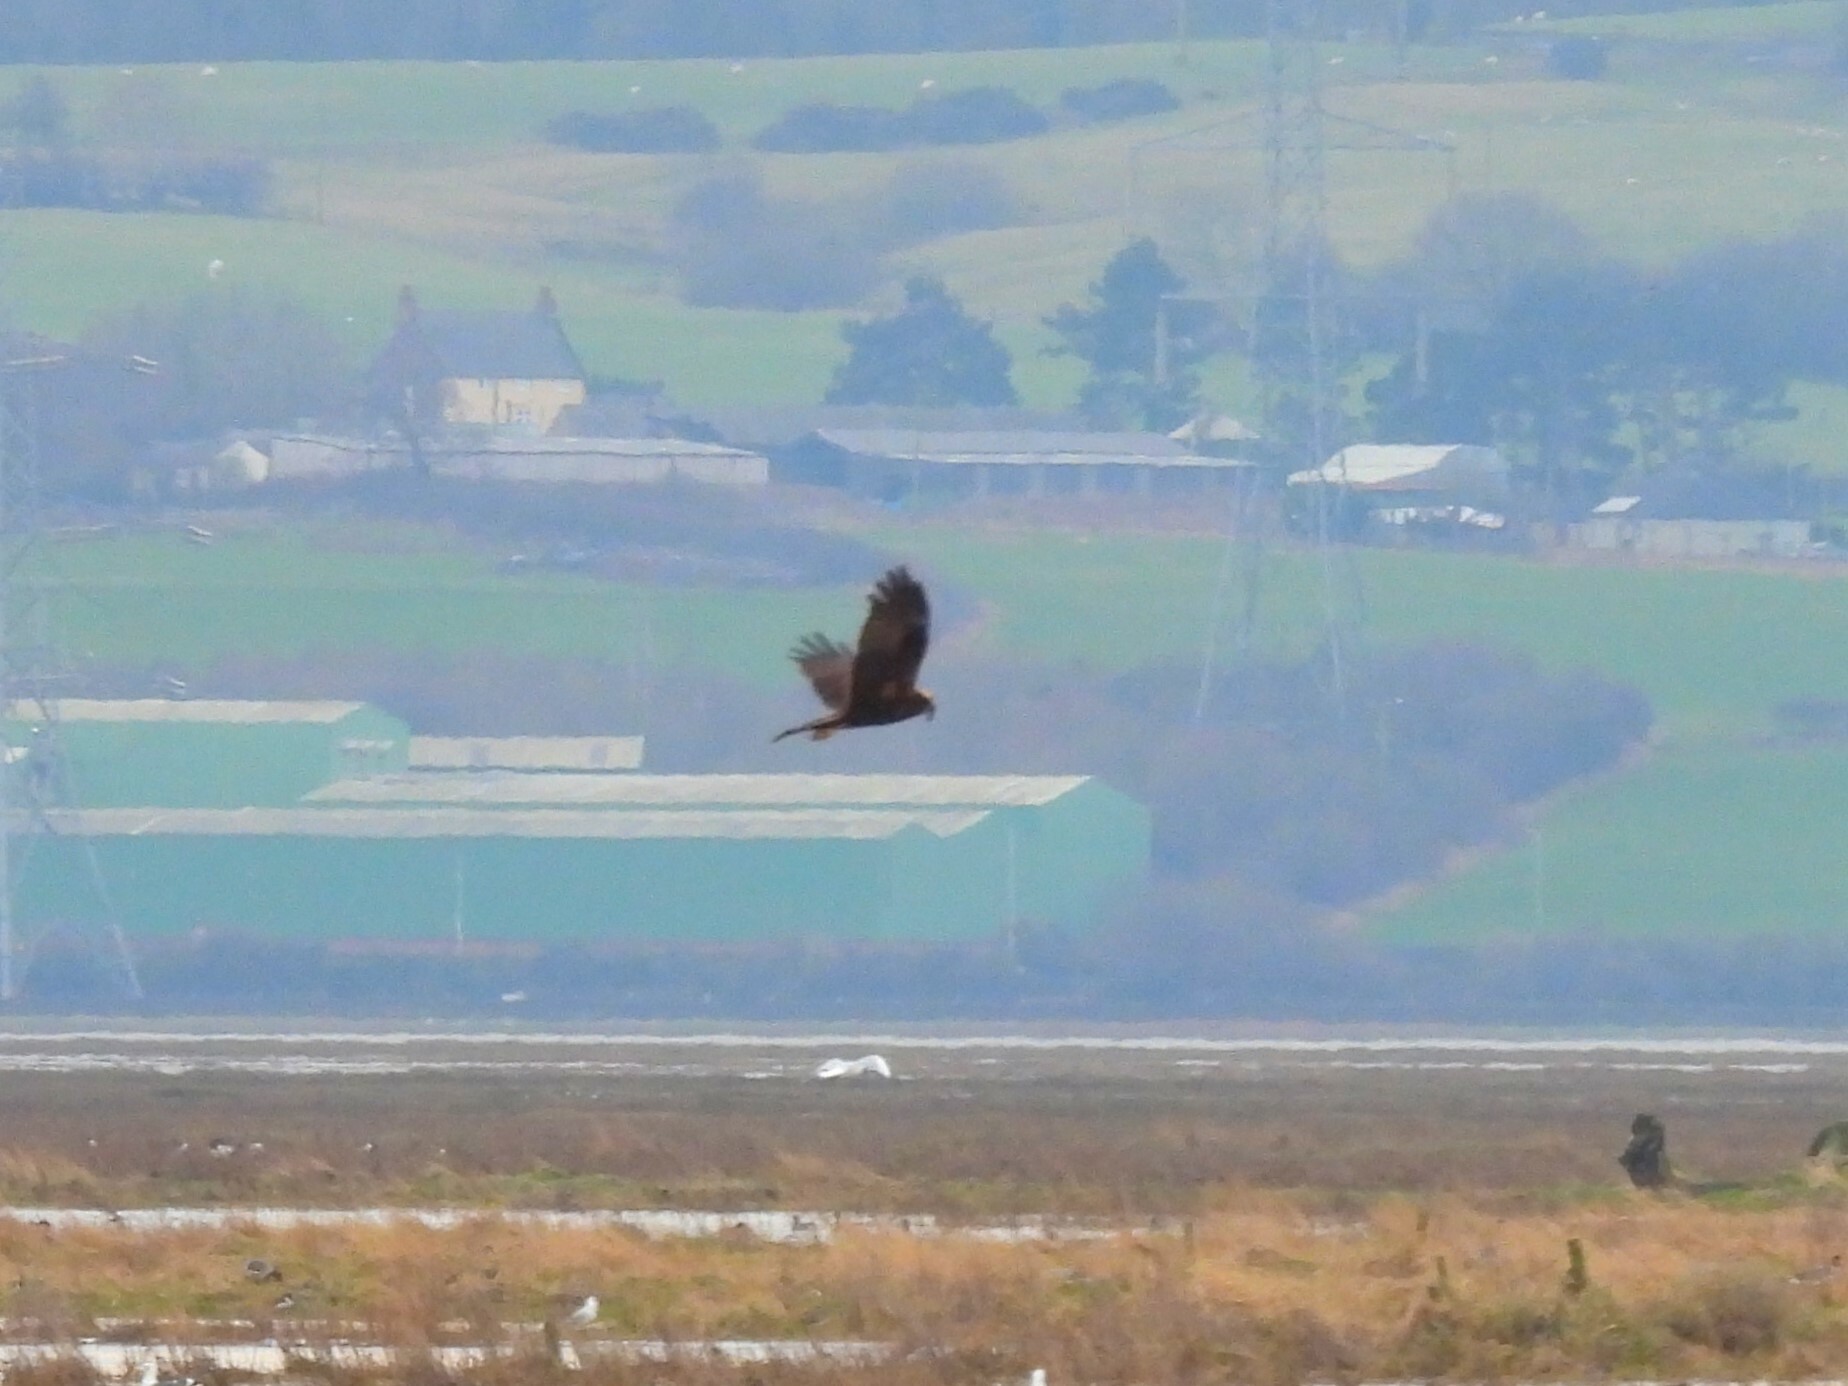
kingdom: Animalia
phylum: Chordata
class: Aves
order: Accipitriformes
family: Accipitridae
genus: Circus
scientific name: Circus aeruginosus
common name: Western marsh harrier
